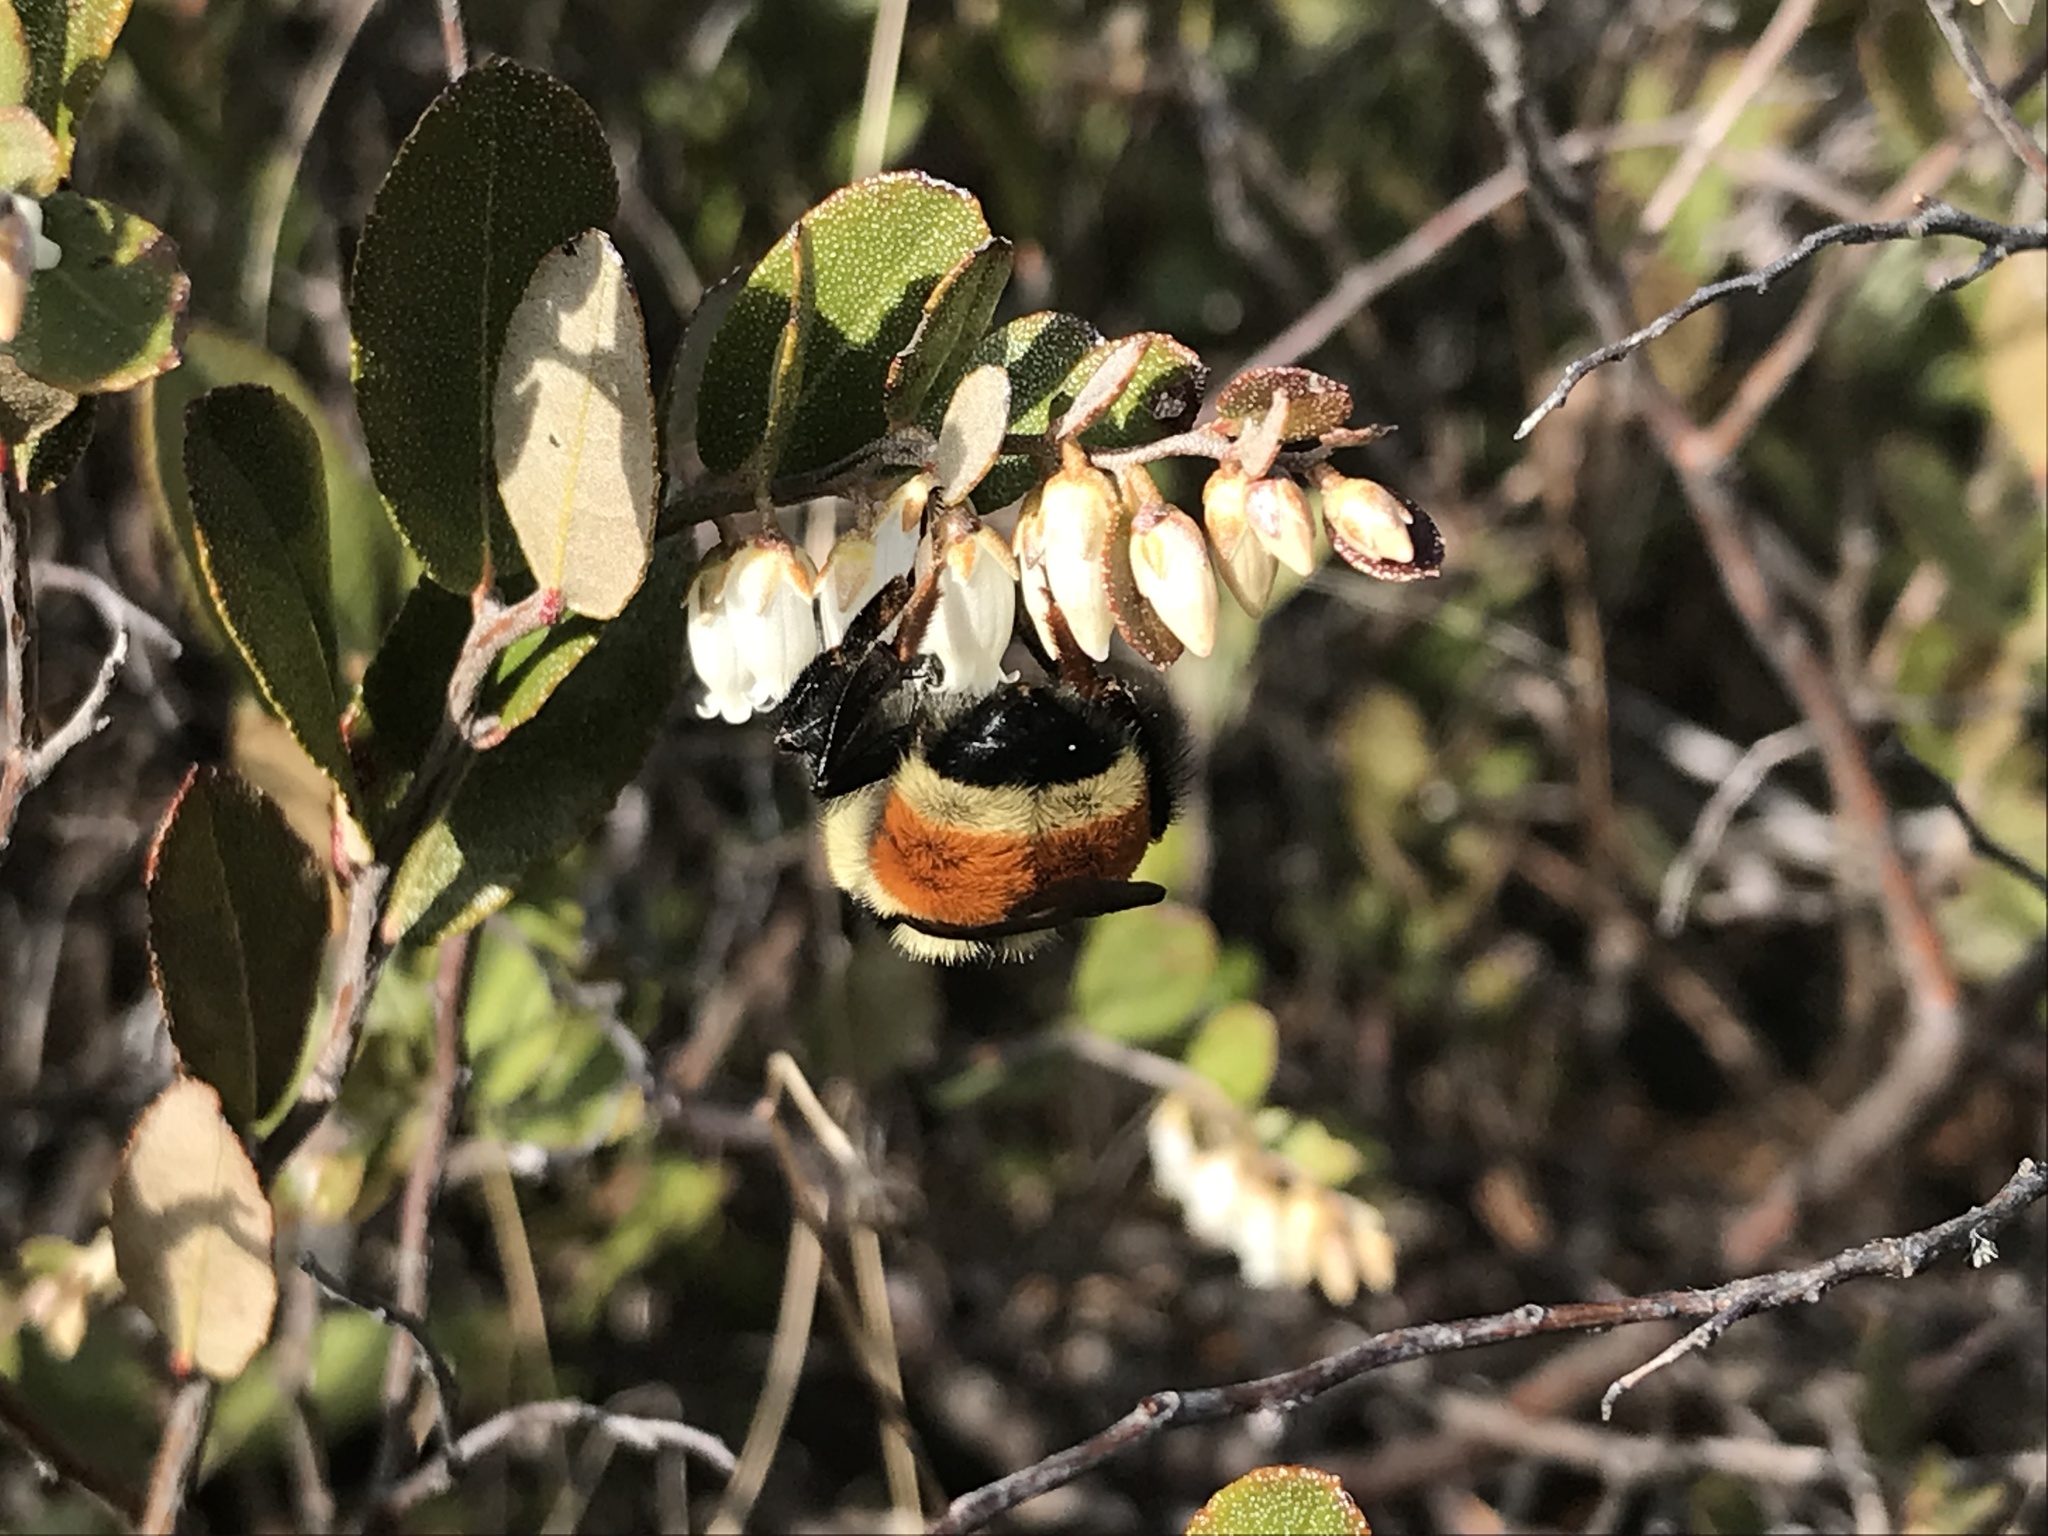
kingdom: Animalia
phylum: Arthropoda
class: Insecta
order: Hymenoptera
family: Apidae
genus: Bombus
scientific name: Bombus ternarius
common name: Tri-colored bumble bee
